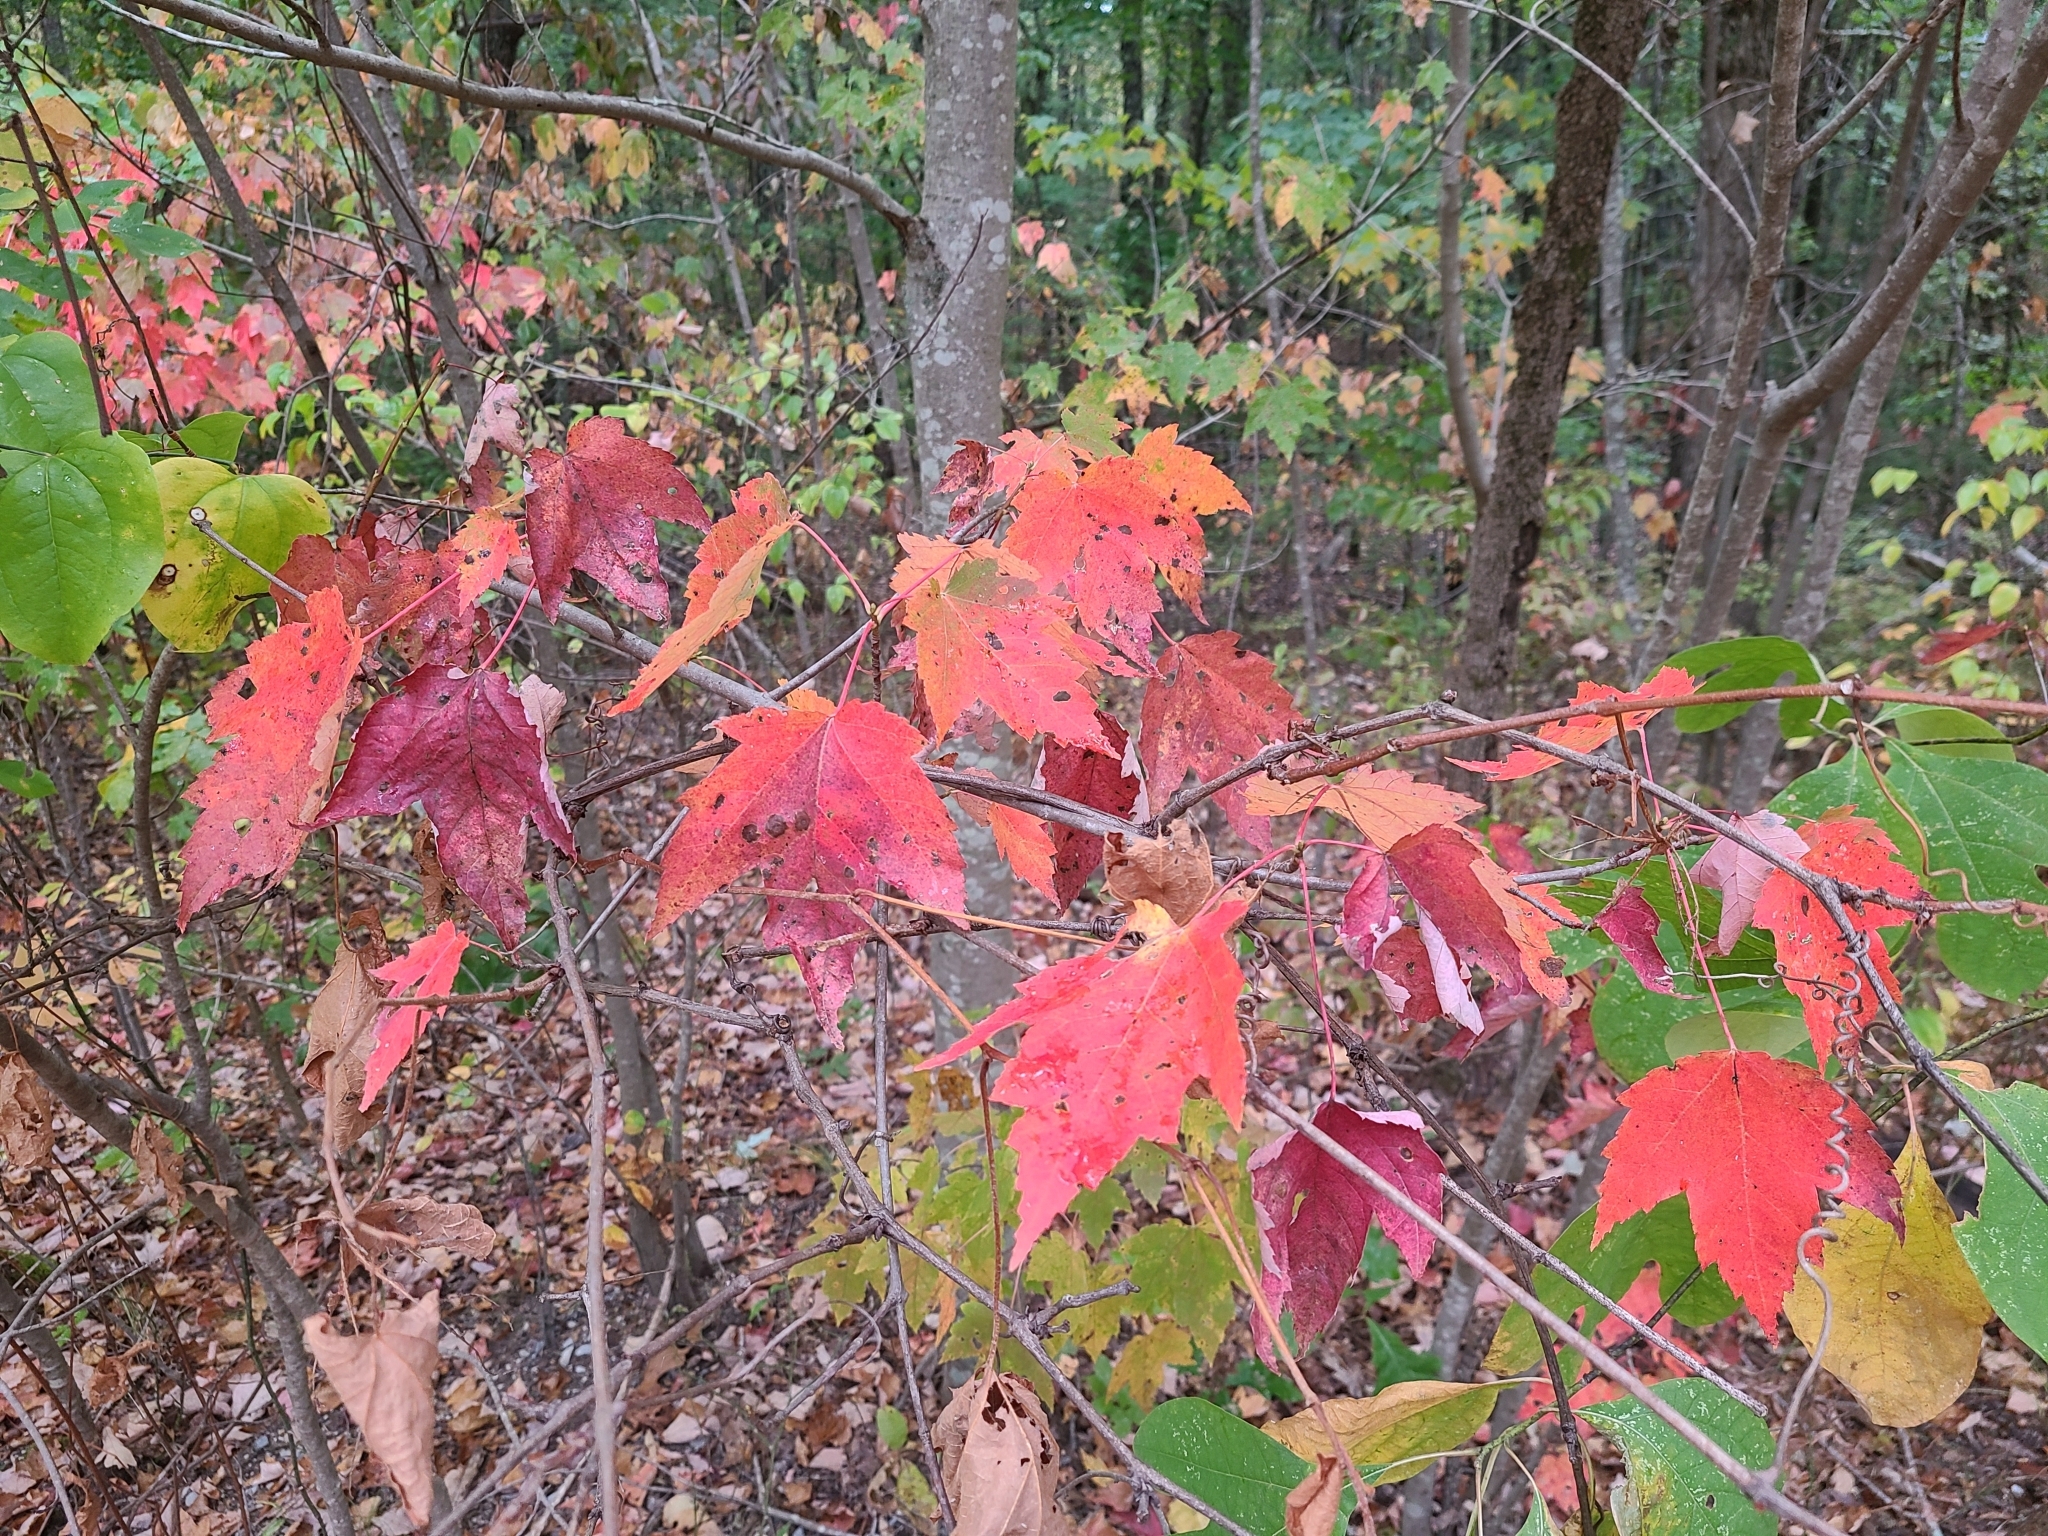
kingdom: Plantae
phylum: Tracheophyta
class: Magnoliopsida
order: Sapindales
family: Sapindaceae
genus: Acer
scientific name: Acer rubrum
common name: Red maple
